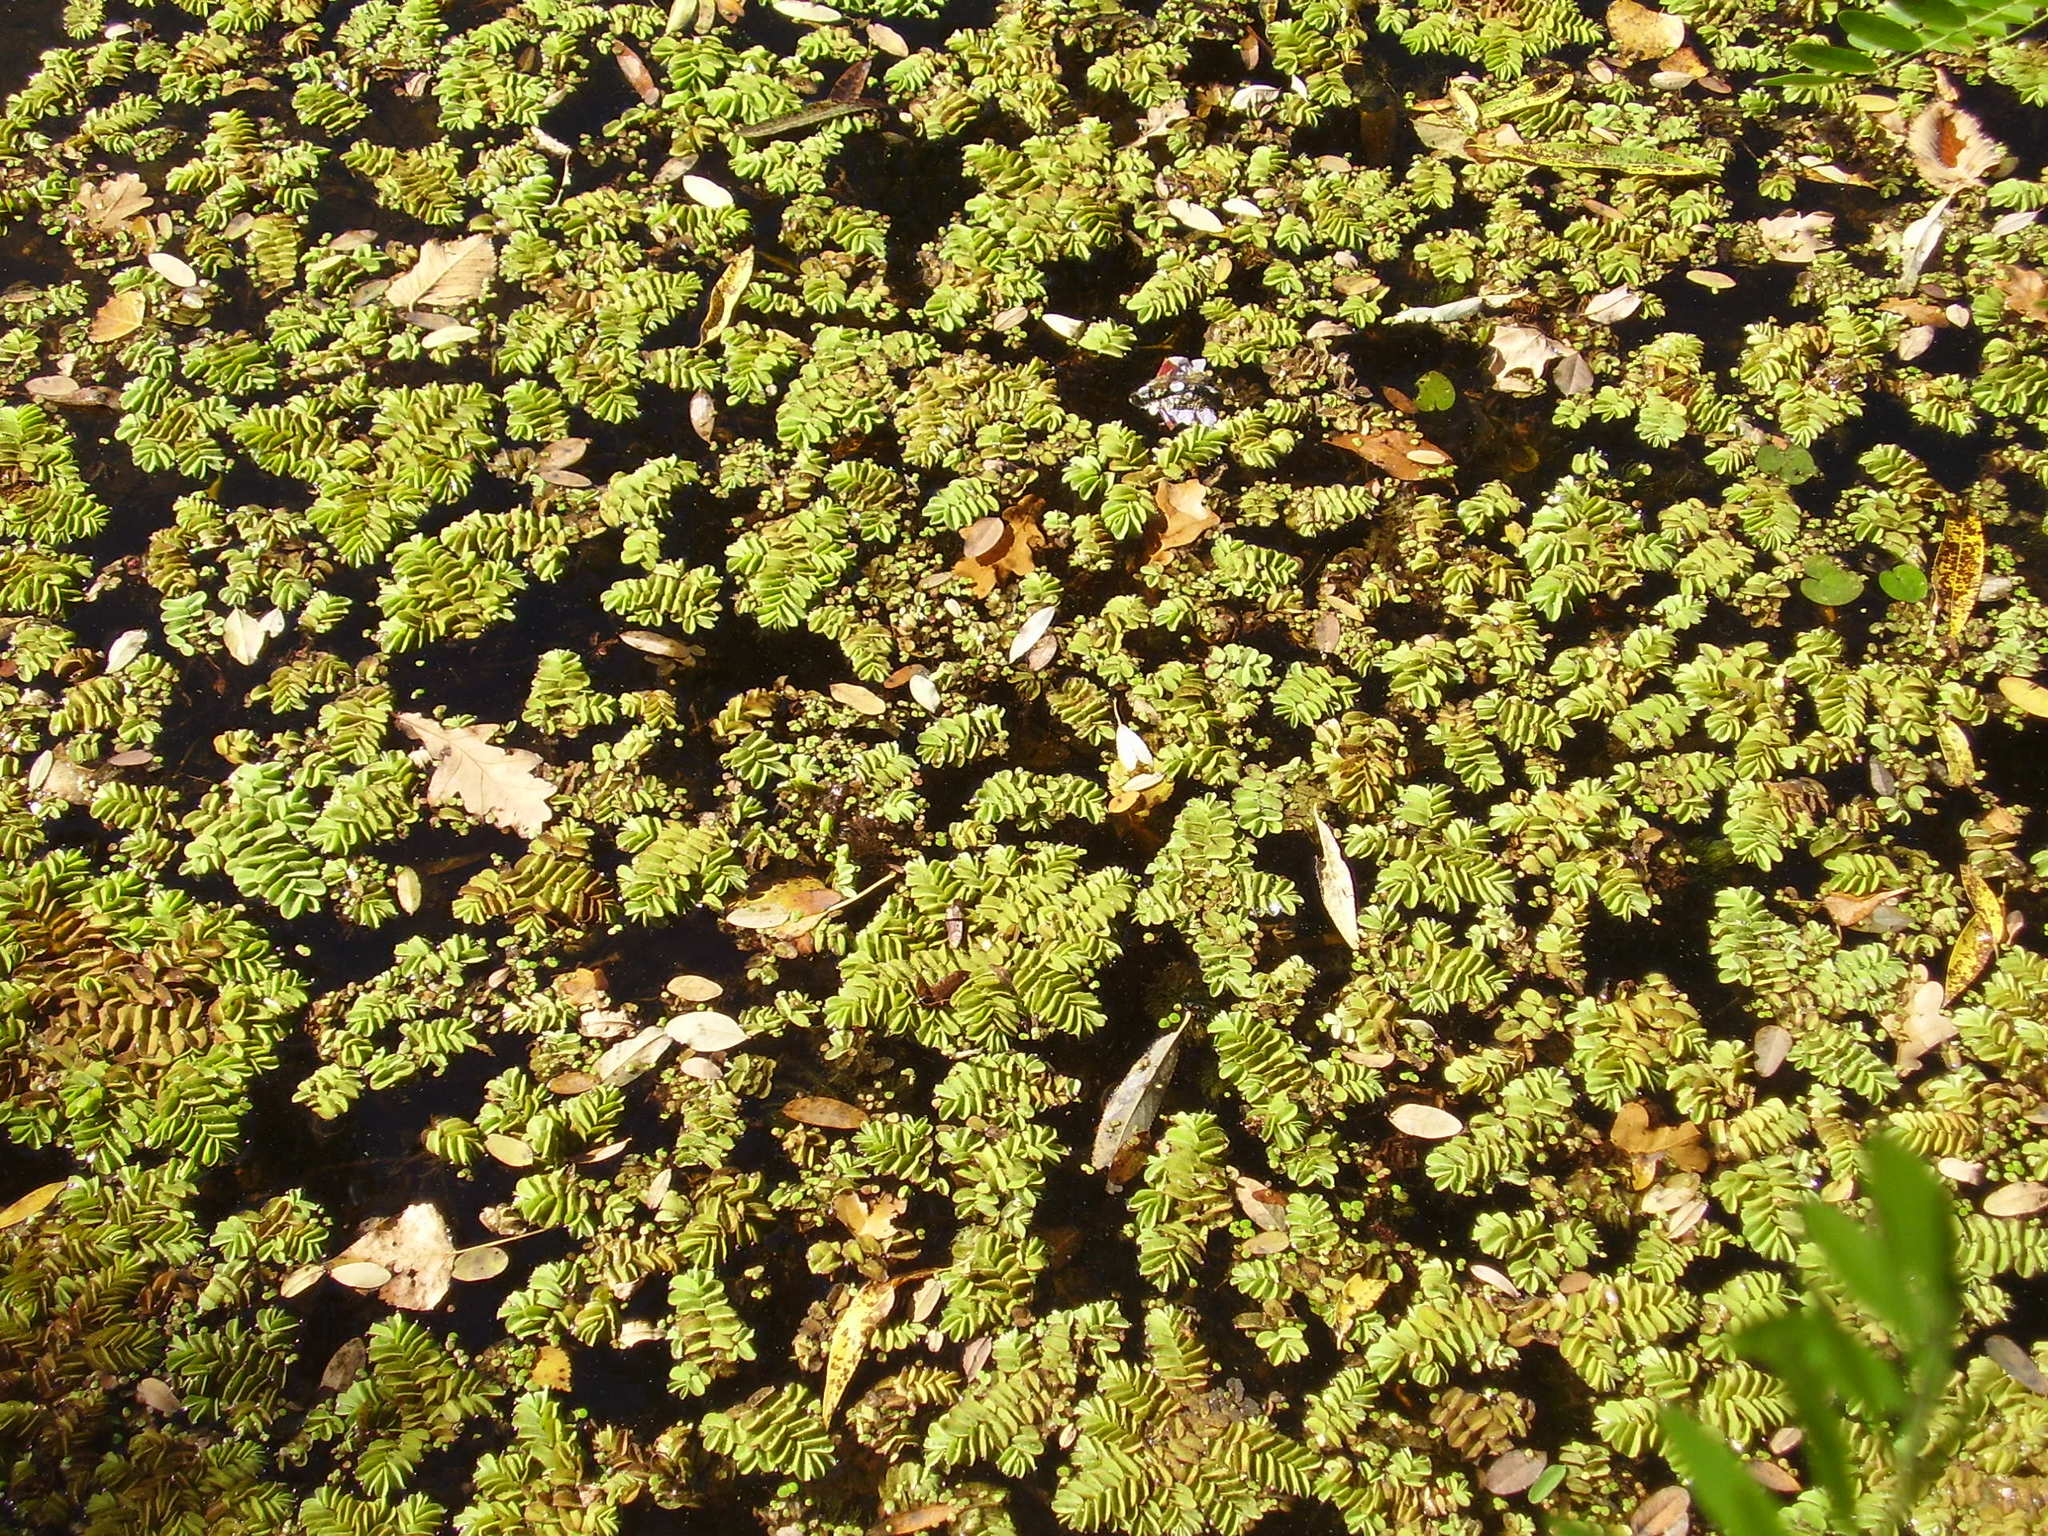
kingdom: Plantae
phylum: Tracheophyta
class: Polypodiopsida
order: Salviniales
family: Salviniaceae
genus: Salvinia
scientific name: Salvinia natans
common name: Floating fern
